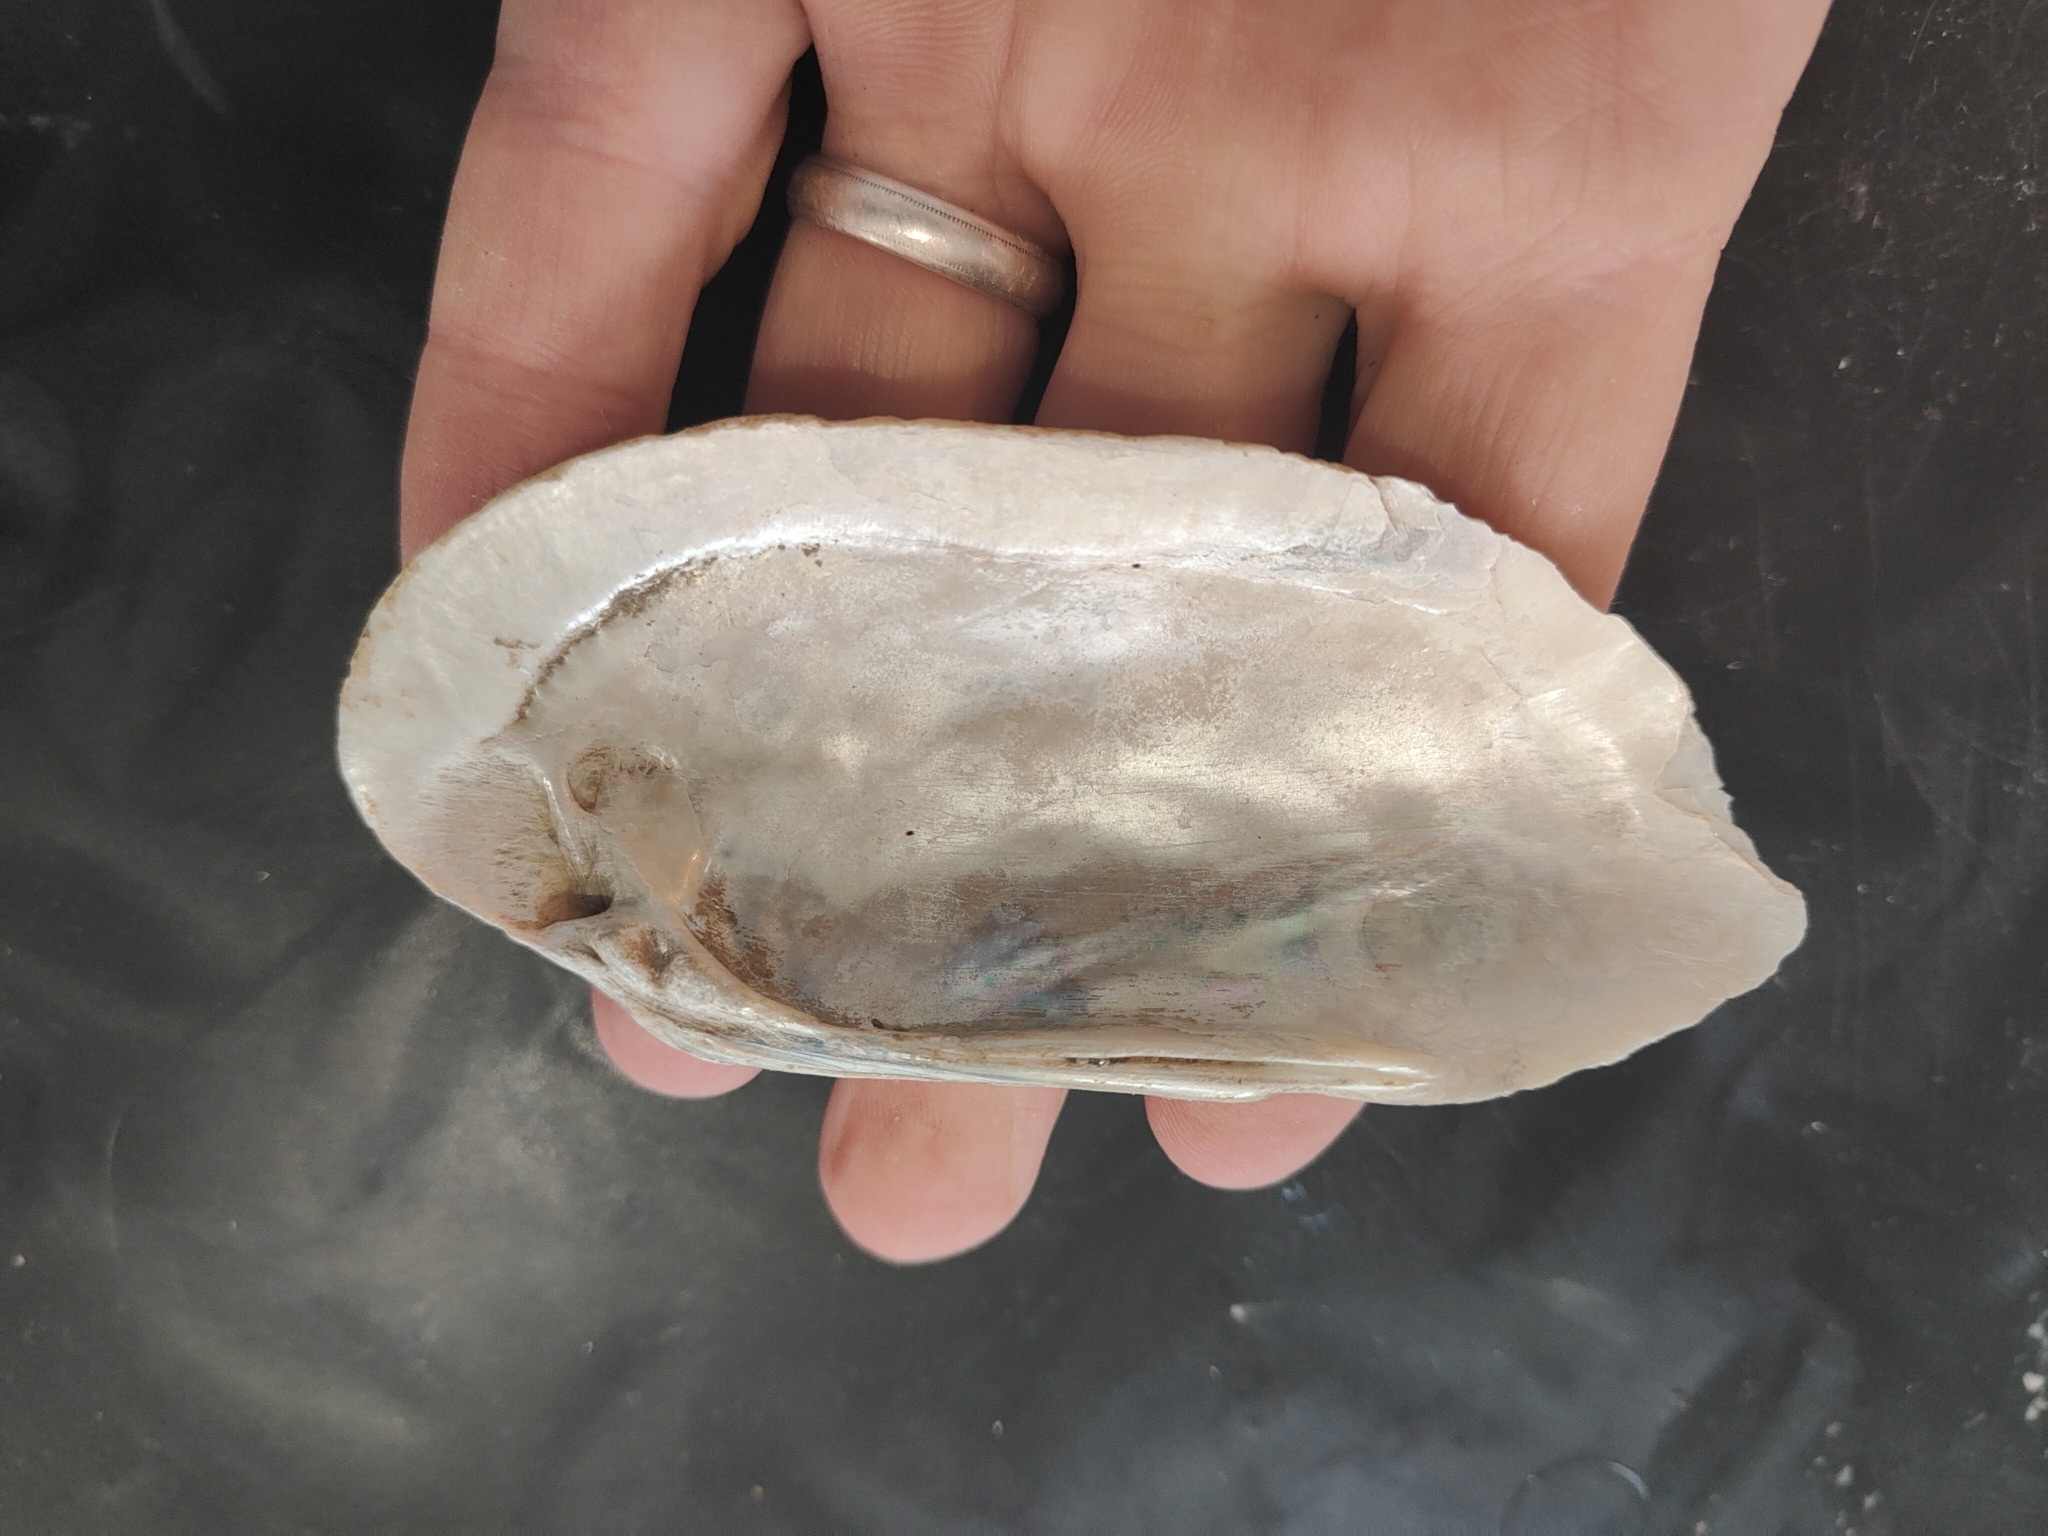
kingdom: Animalia
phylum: Mollusca
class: Bivalvia
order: Unionida
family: Unionidae
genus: Ligumia
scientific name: Ligumia recta
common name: Black sandshell
